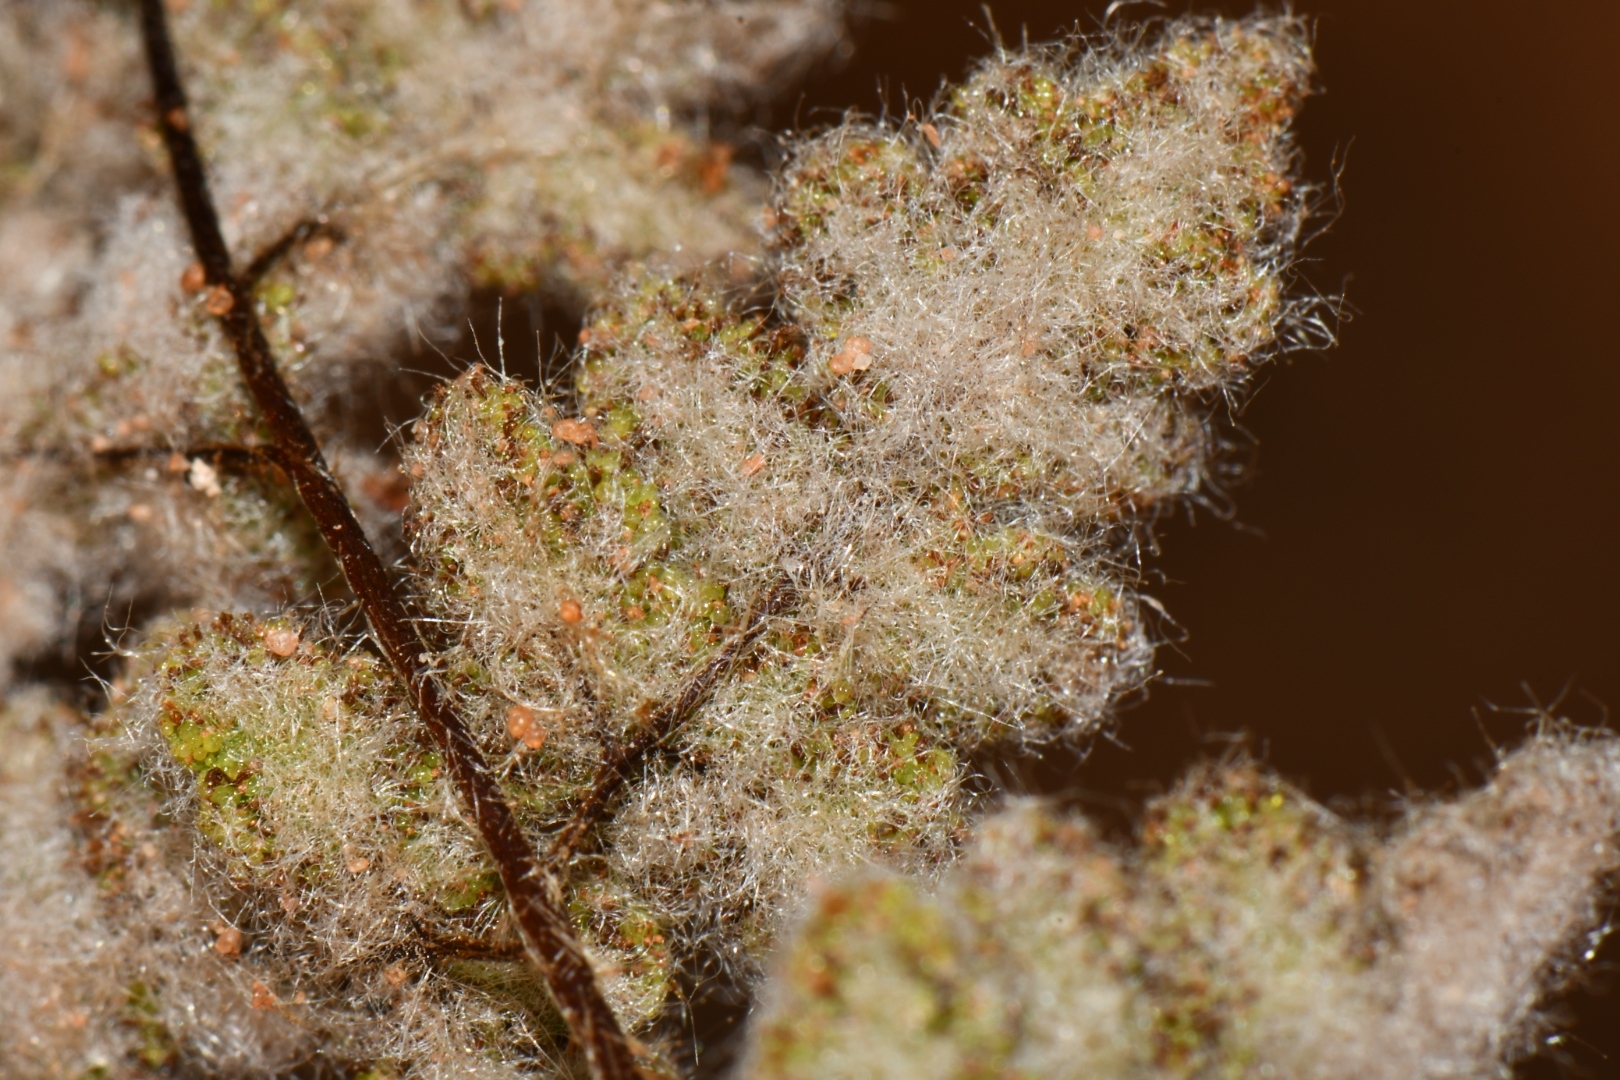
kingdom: Plantae
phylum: Tracheophyta
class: Polypodiopsida
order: Polypodiales
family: Pteridaceae
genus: Myriopteris
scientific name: Myriopteris parryi
